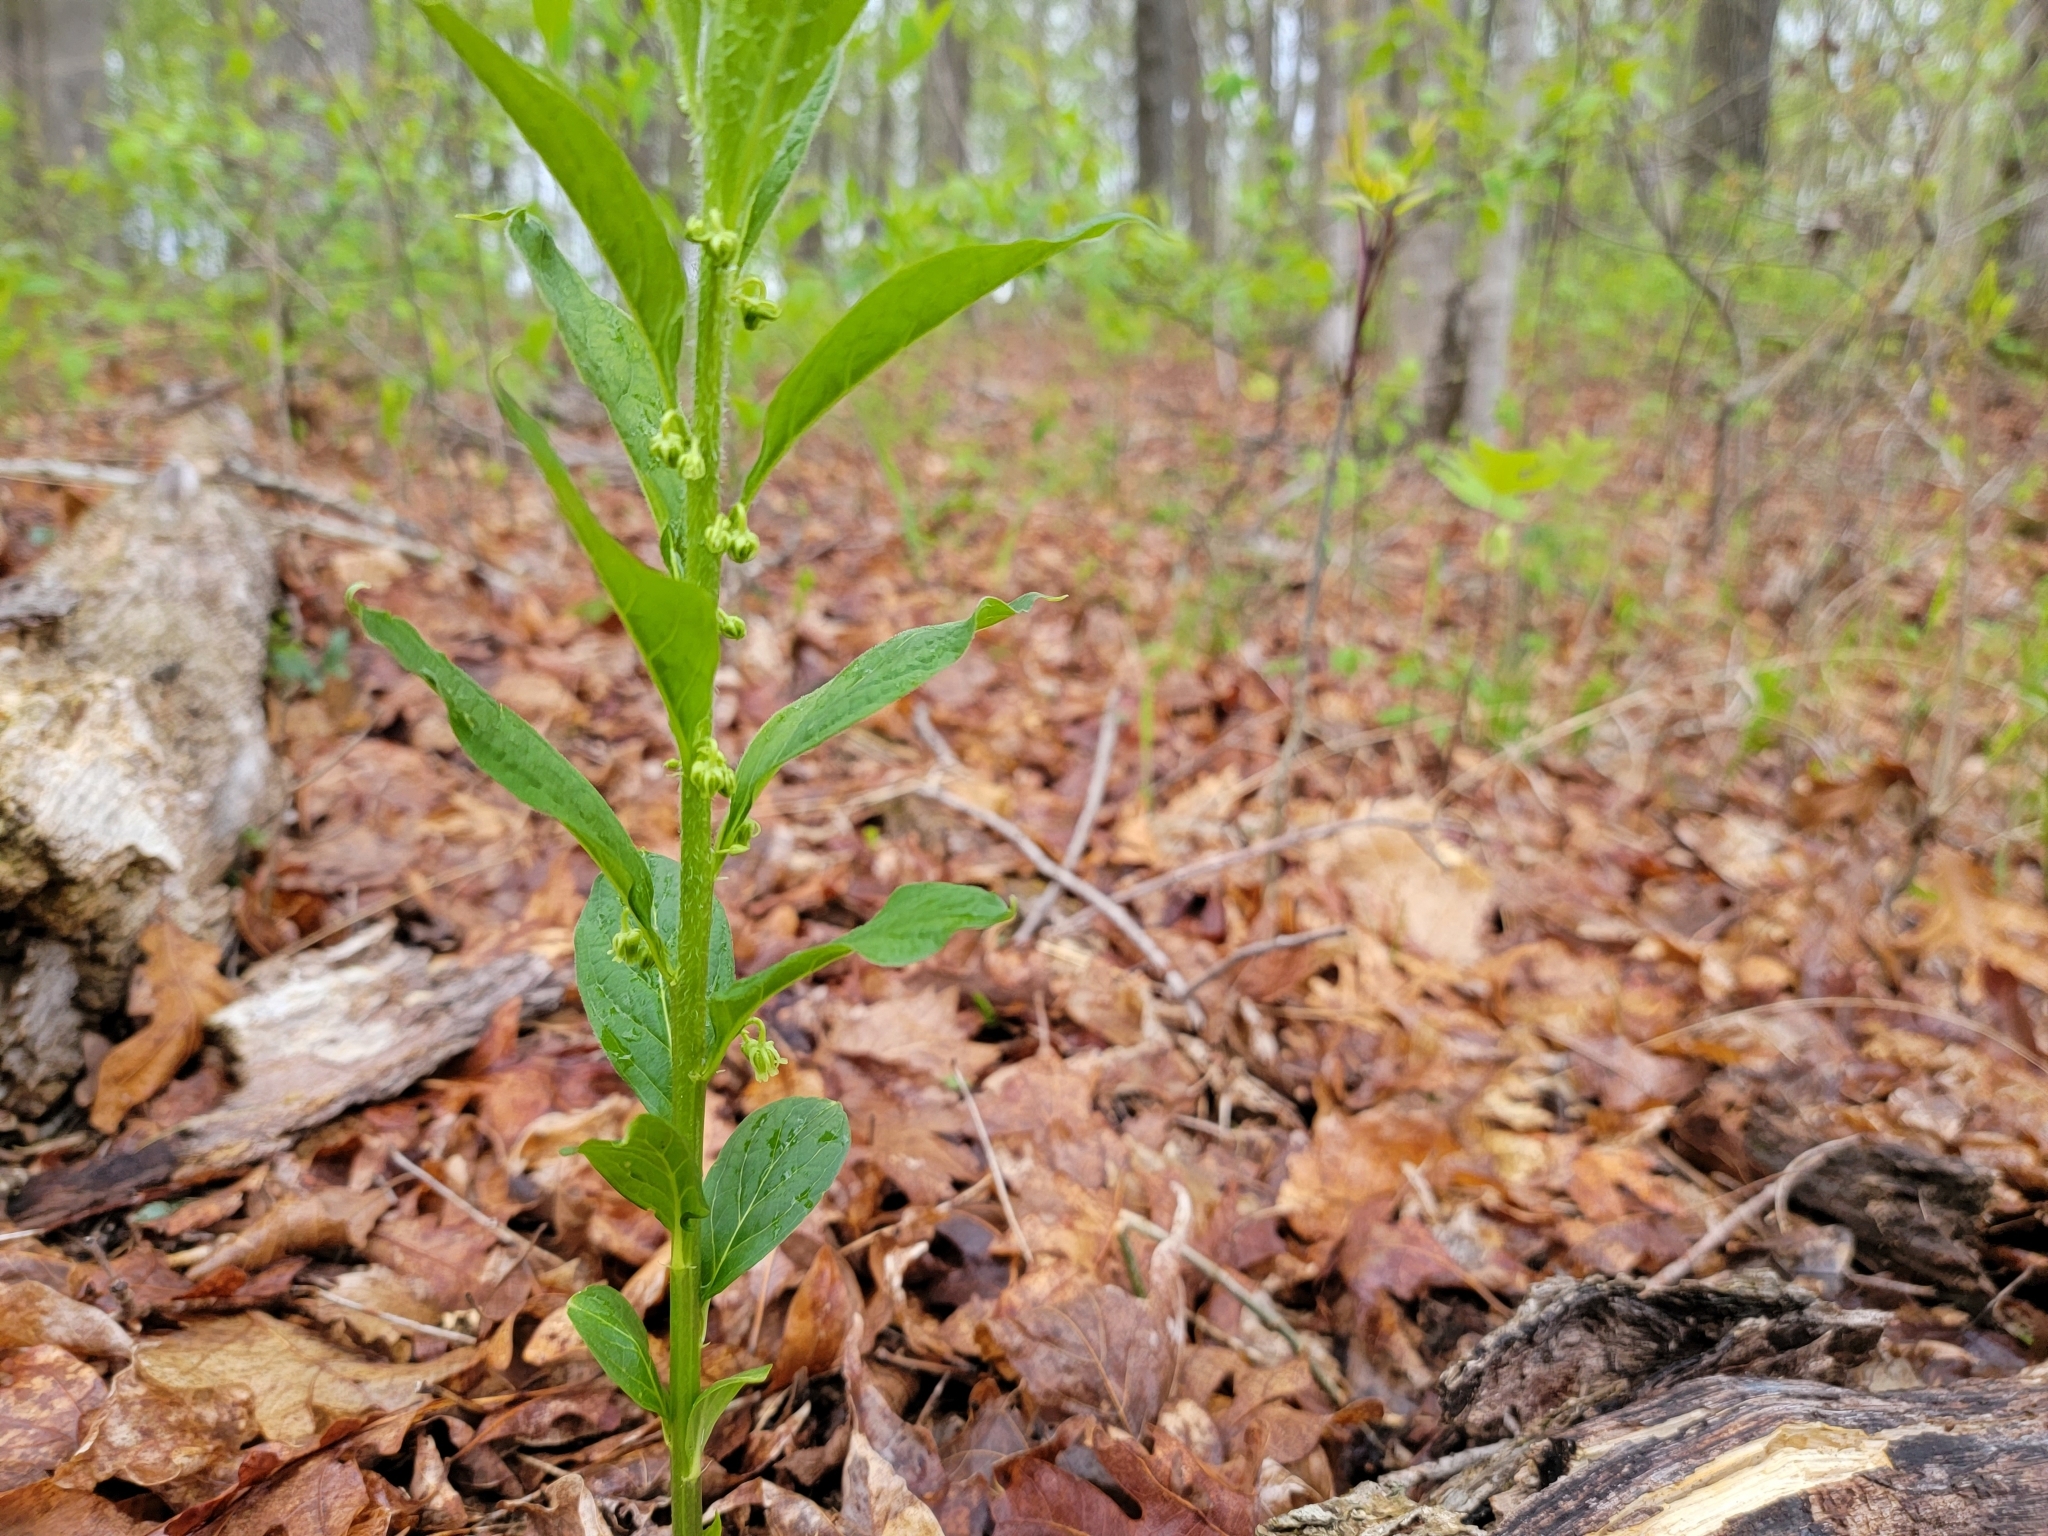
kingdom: Plantae
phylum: Tracheophyta
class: Magnoliopsida
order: Malpighiales
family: Violaceae
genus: Cubelium
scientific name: Cubelium concolor
